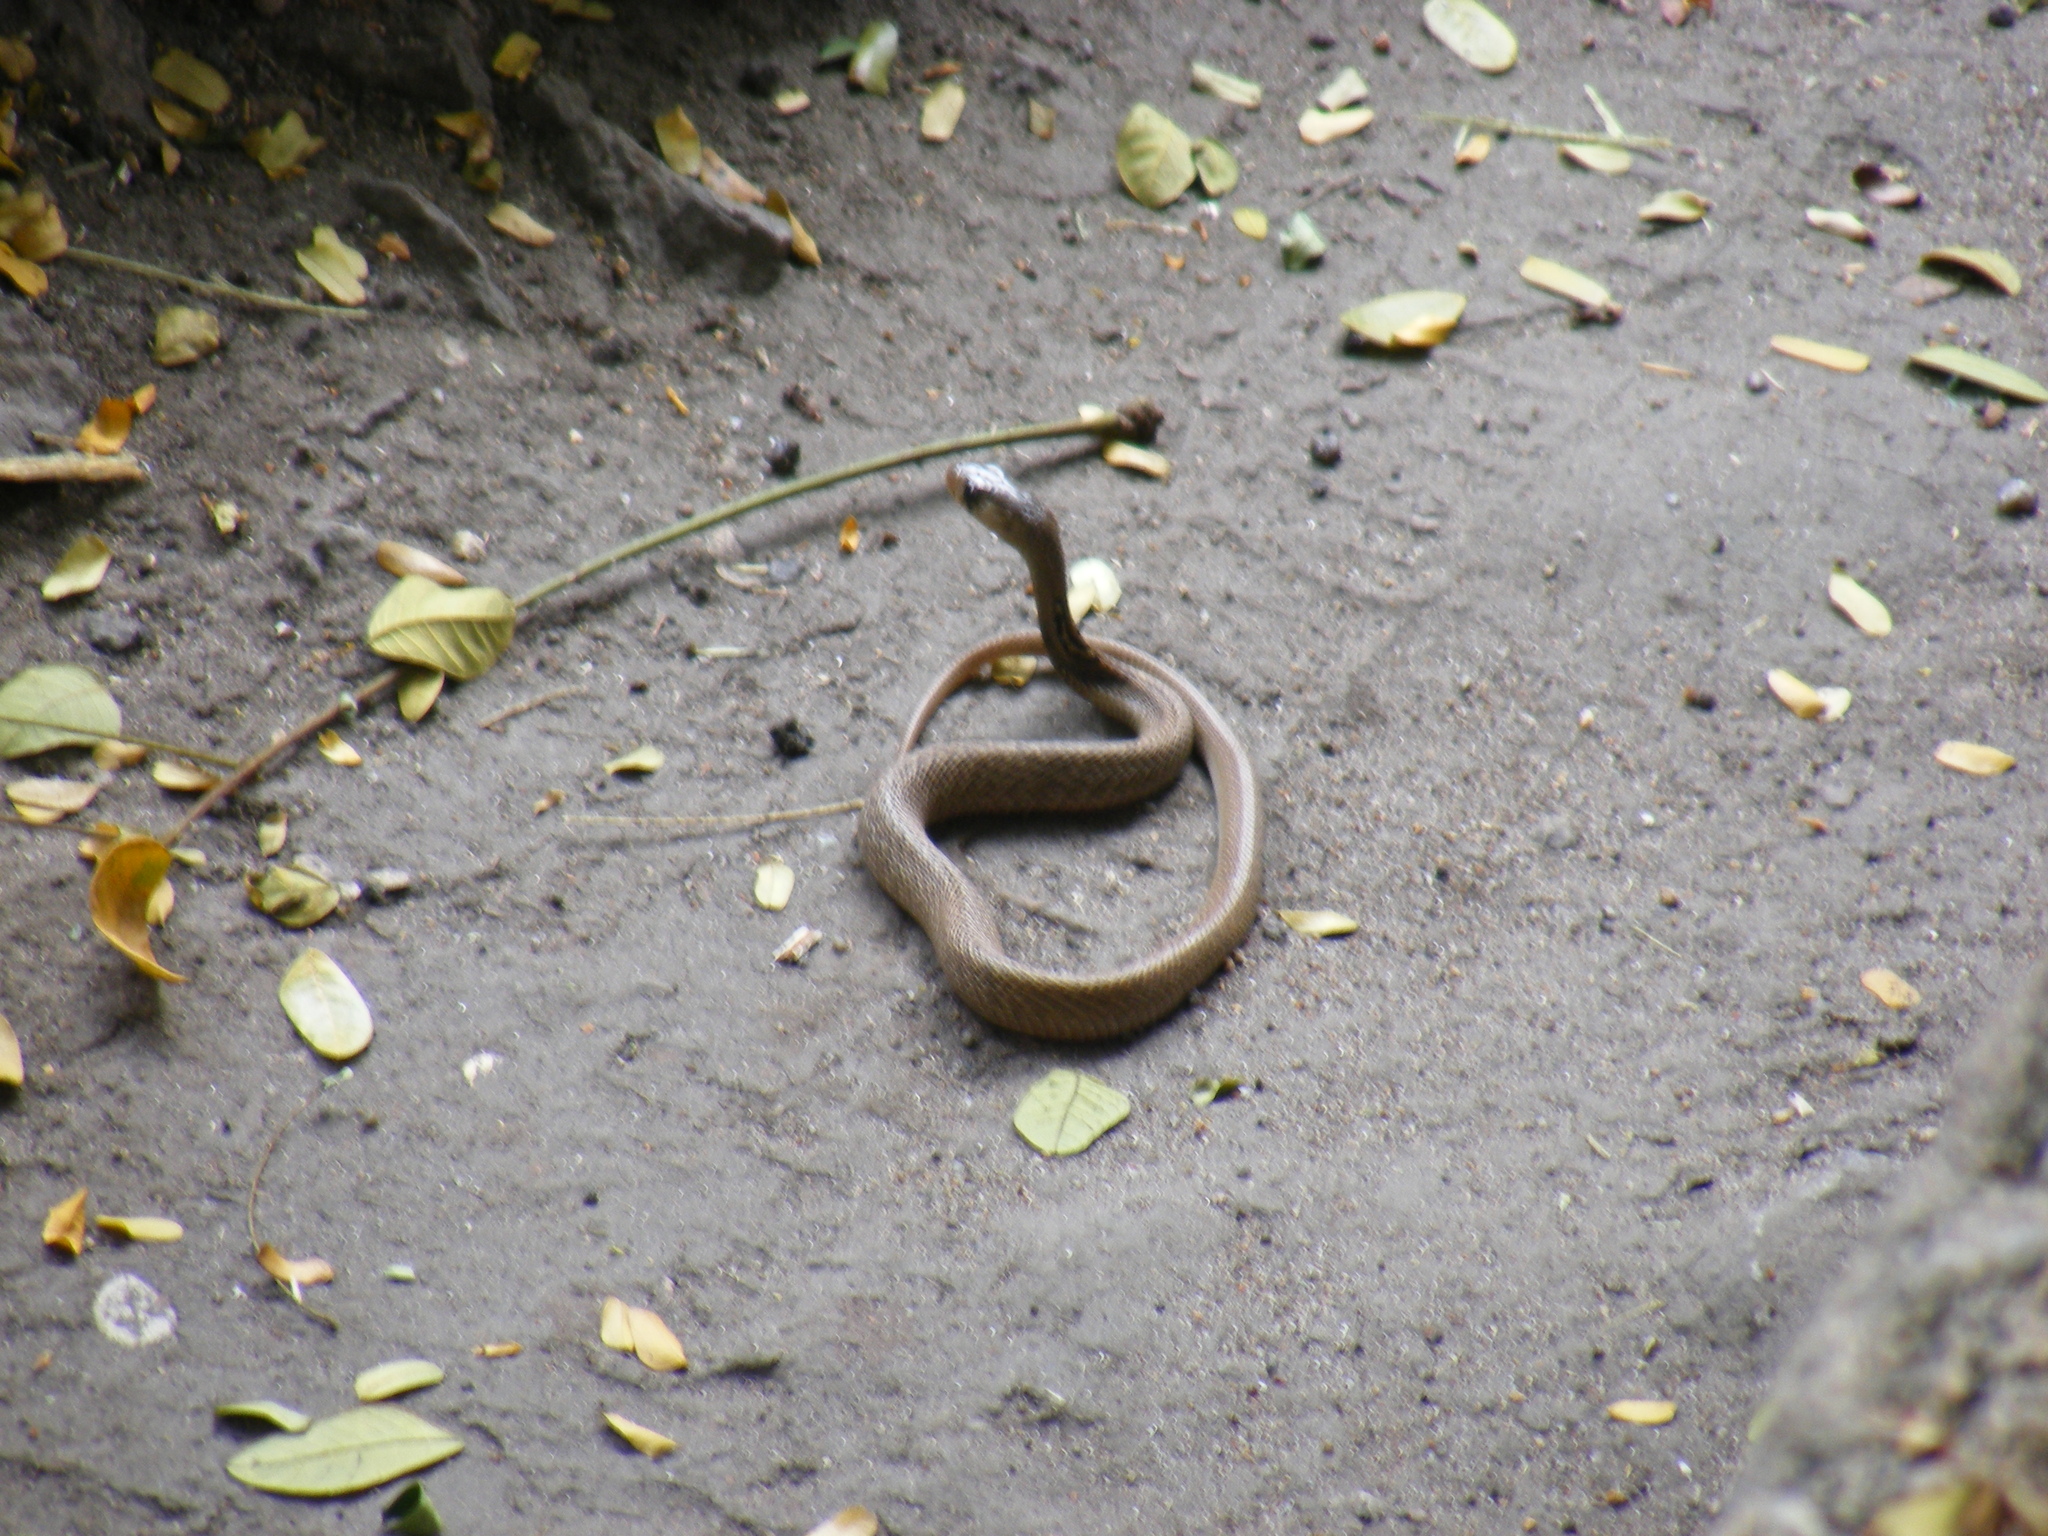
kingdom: Animalia
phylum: Chordata
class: Squamata
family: Elapidae
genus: Naja
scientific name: Naja naja
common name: Indian cobra
